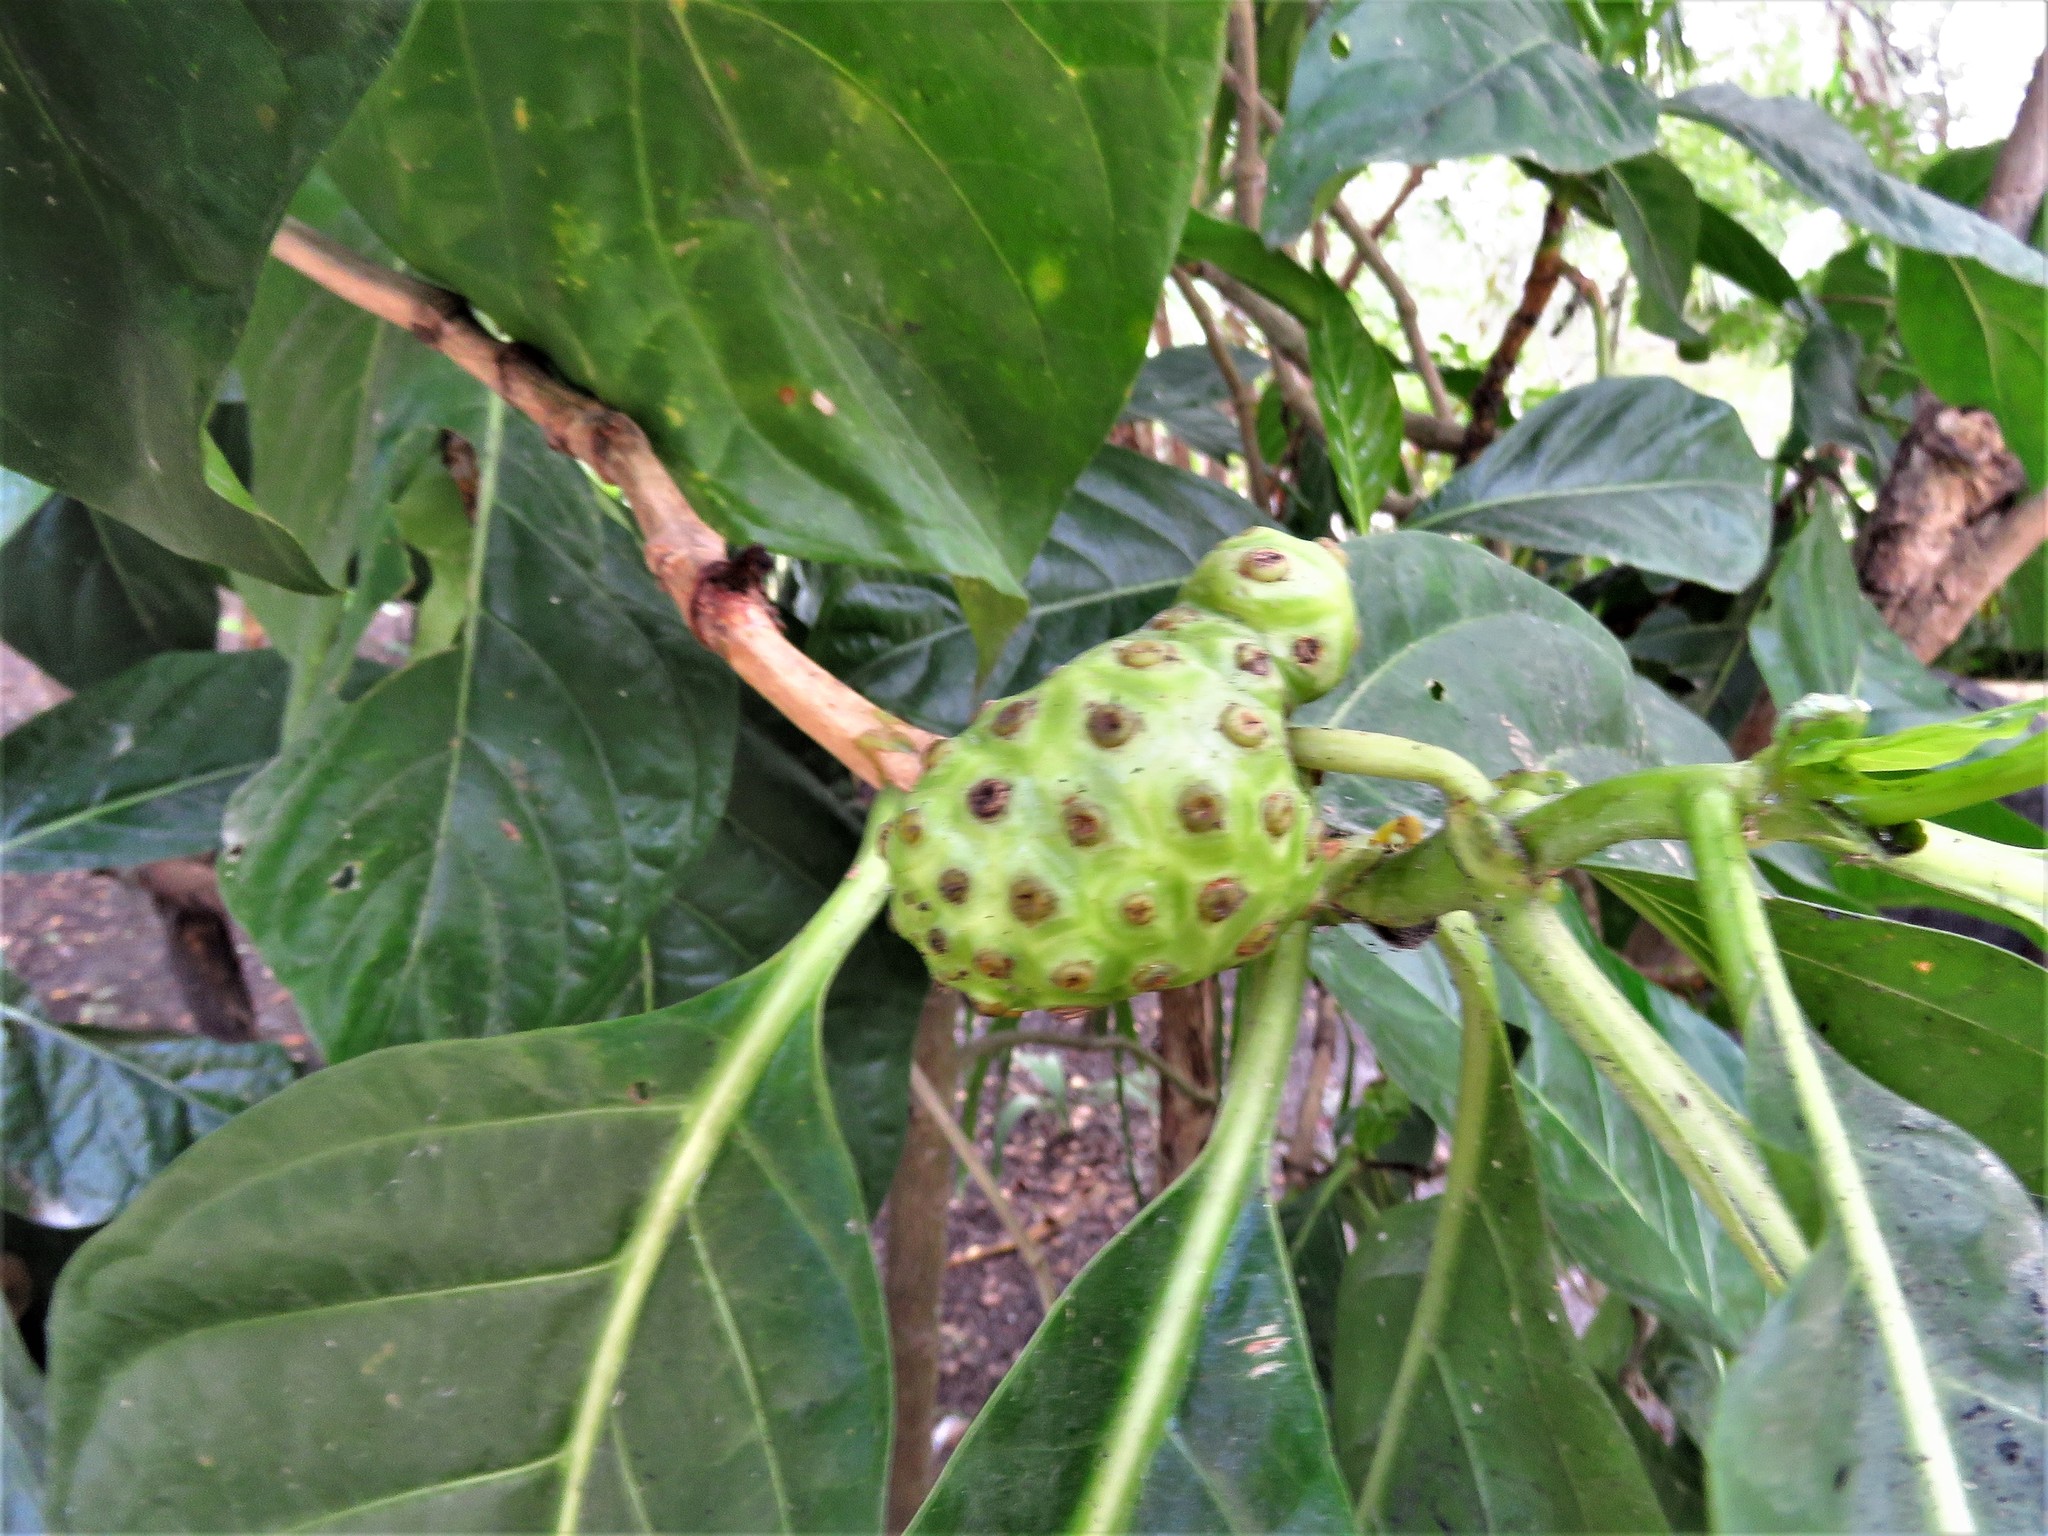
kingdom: Plantae
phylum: Tracheophyta
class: Magnoliopsida
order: Gentianales
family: Rubiaceae
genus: Morinda
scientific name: Morinda citrifolia
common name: Indian-mulberry
